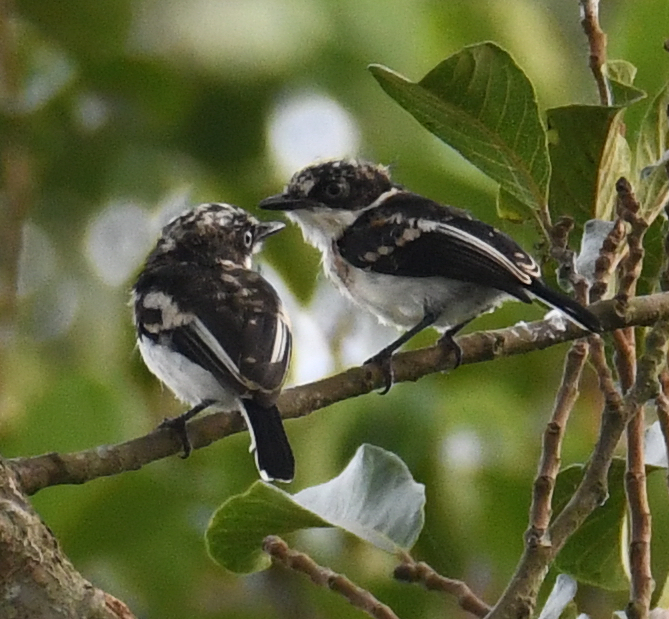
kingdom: Animalia
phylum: Chordata
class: Aves
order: Passeriformes
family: Platysteiridae
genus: Batis
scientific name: Batis poensis
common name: Fernando po batis
